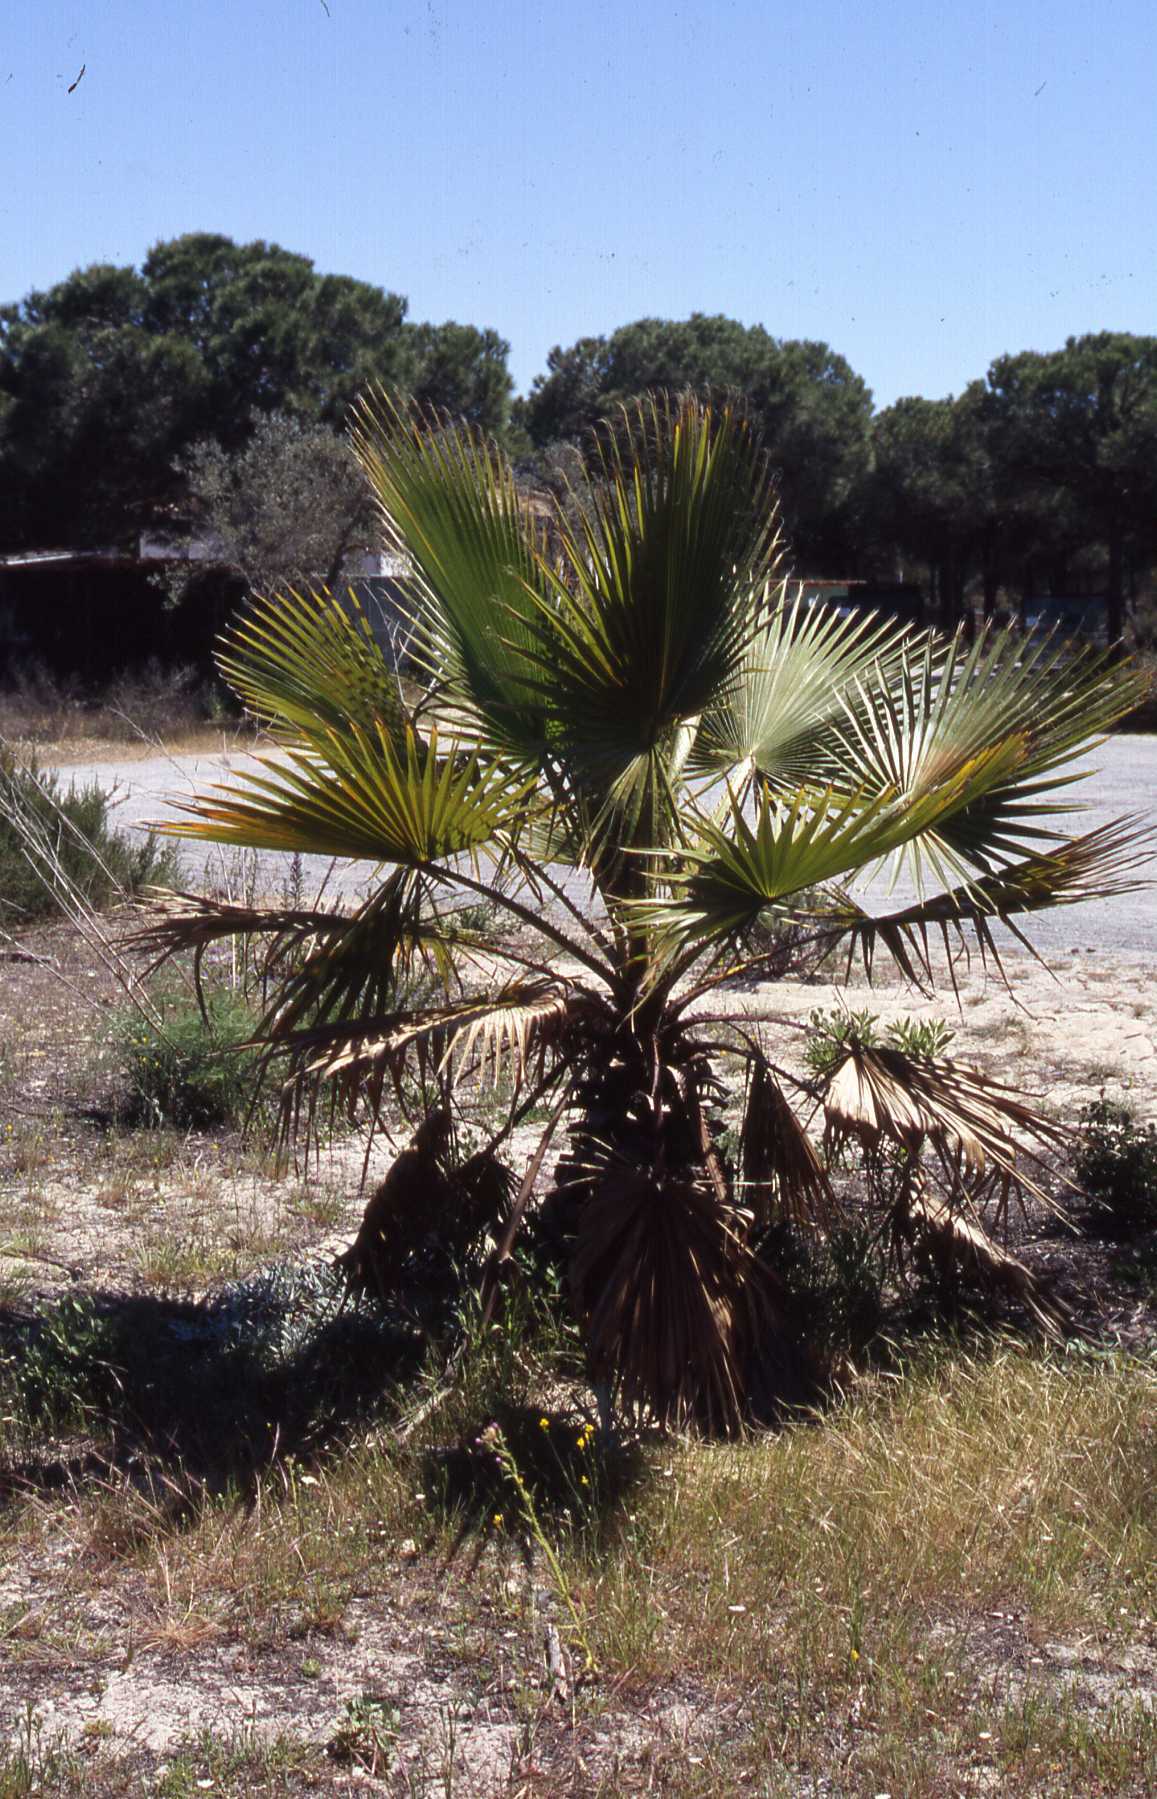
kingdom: Plantae
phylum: Tracheophyta
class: Liliopsida
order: Arecales
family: Arecaceae
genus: Washingtonia
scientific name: Washingtonia robusta
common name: Mexican fan palm
